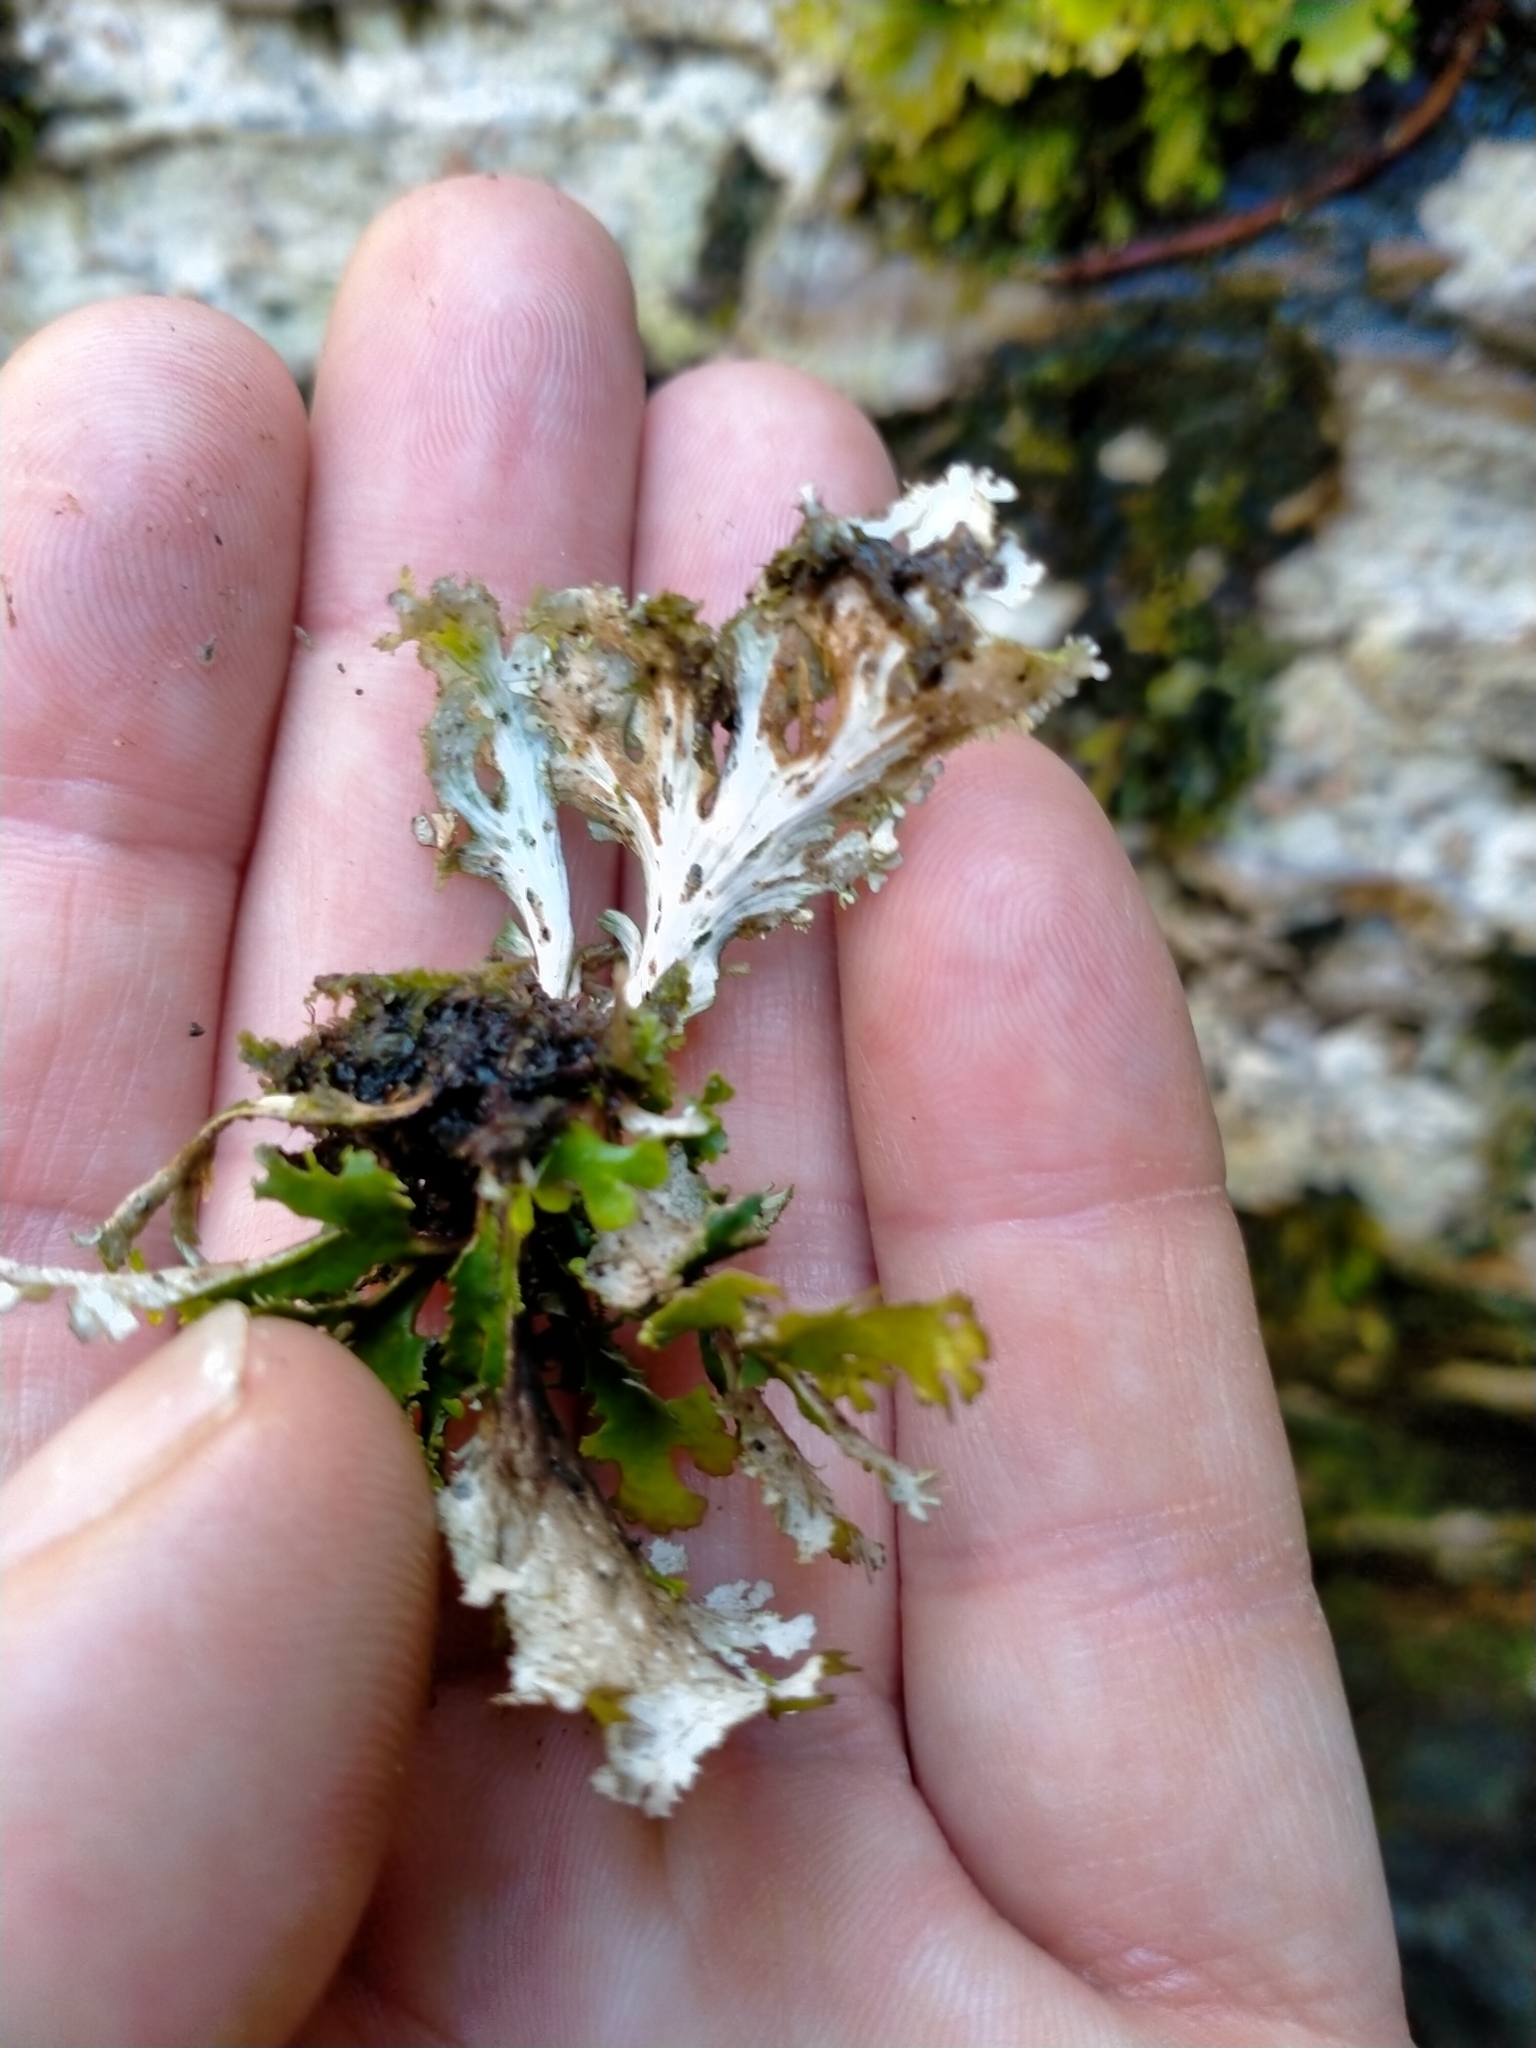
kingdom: Fungi
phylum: Ascomycota
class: Lecanoromycetes
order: Peltigerales
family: Lobariaceae
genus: Sticta
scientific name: Sticta
